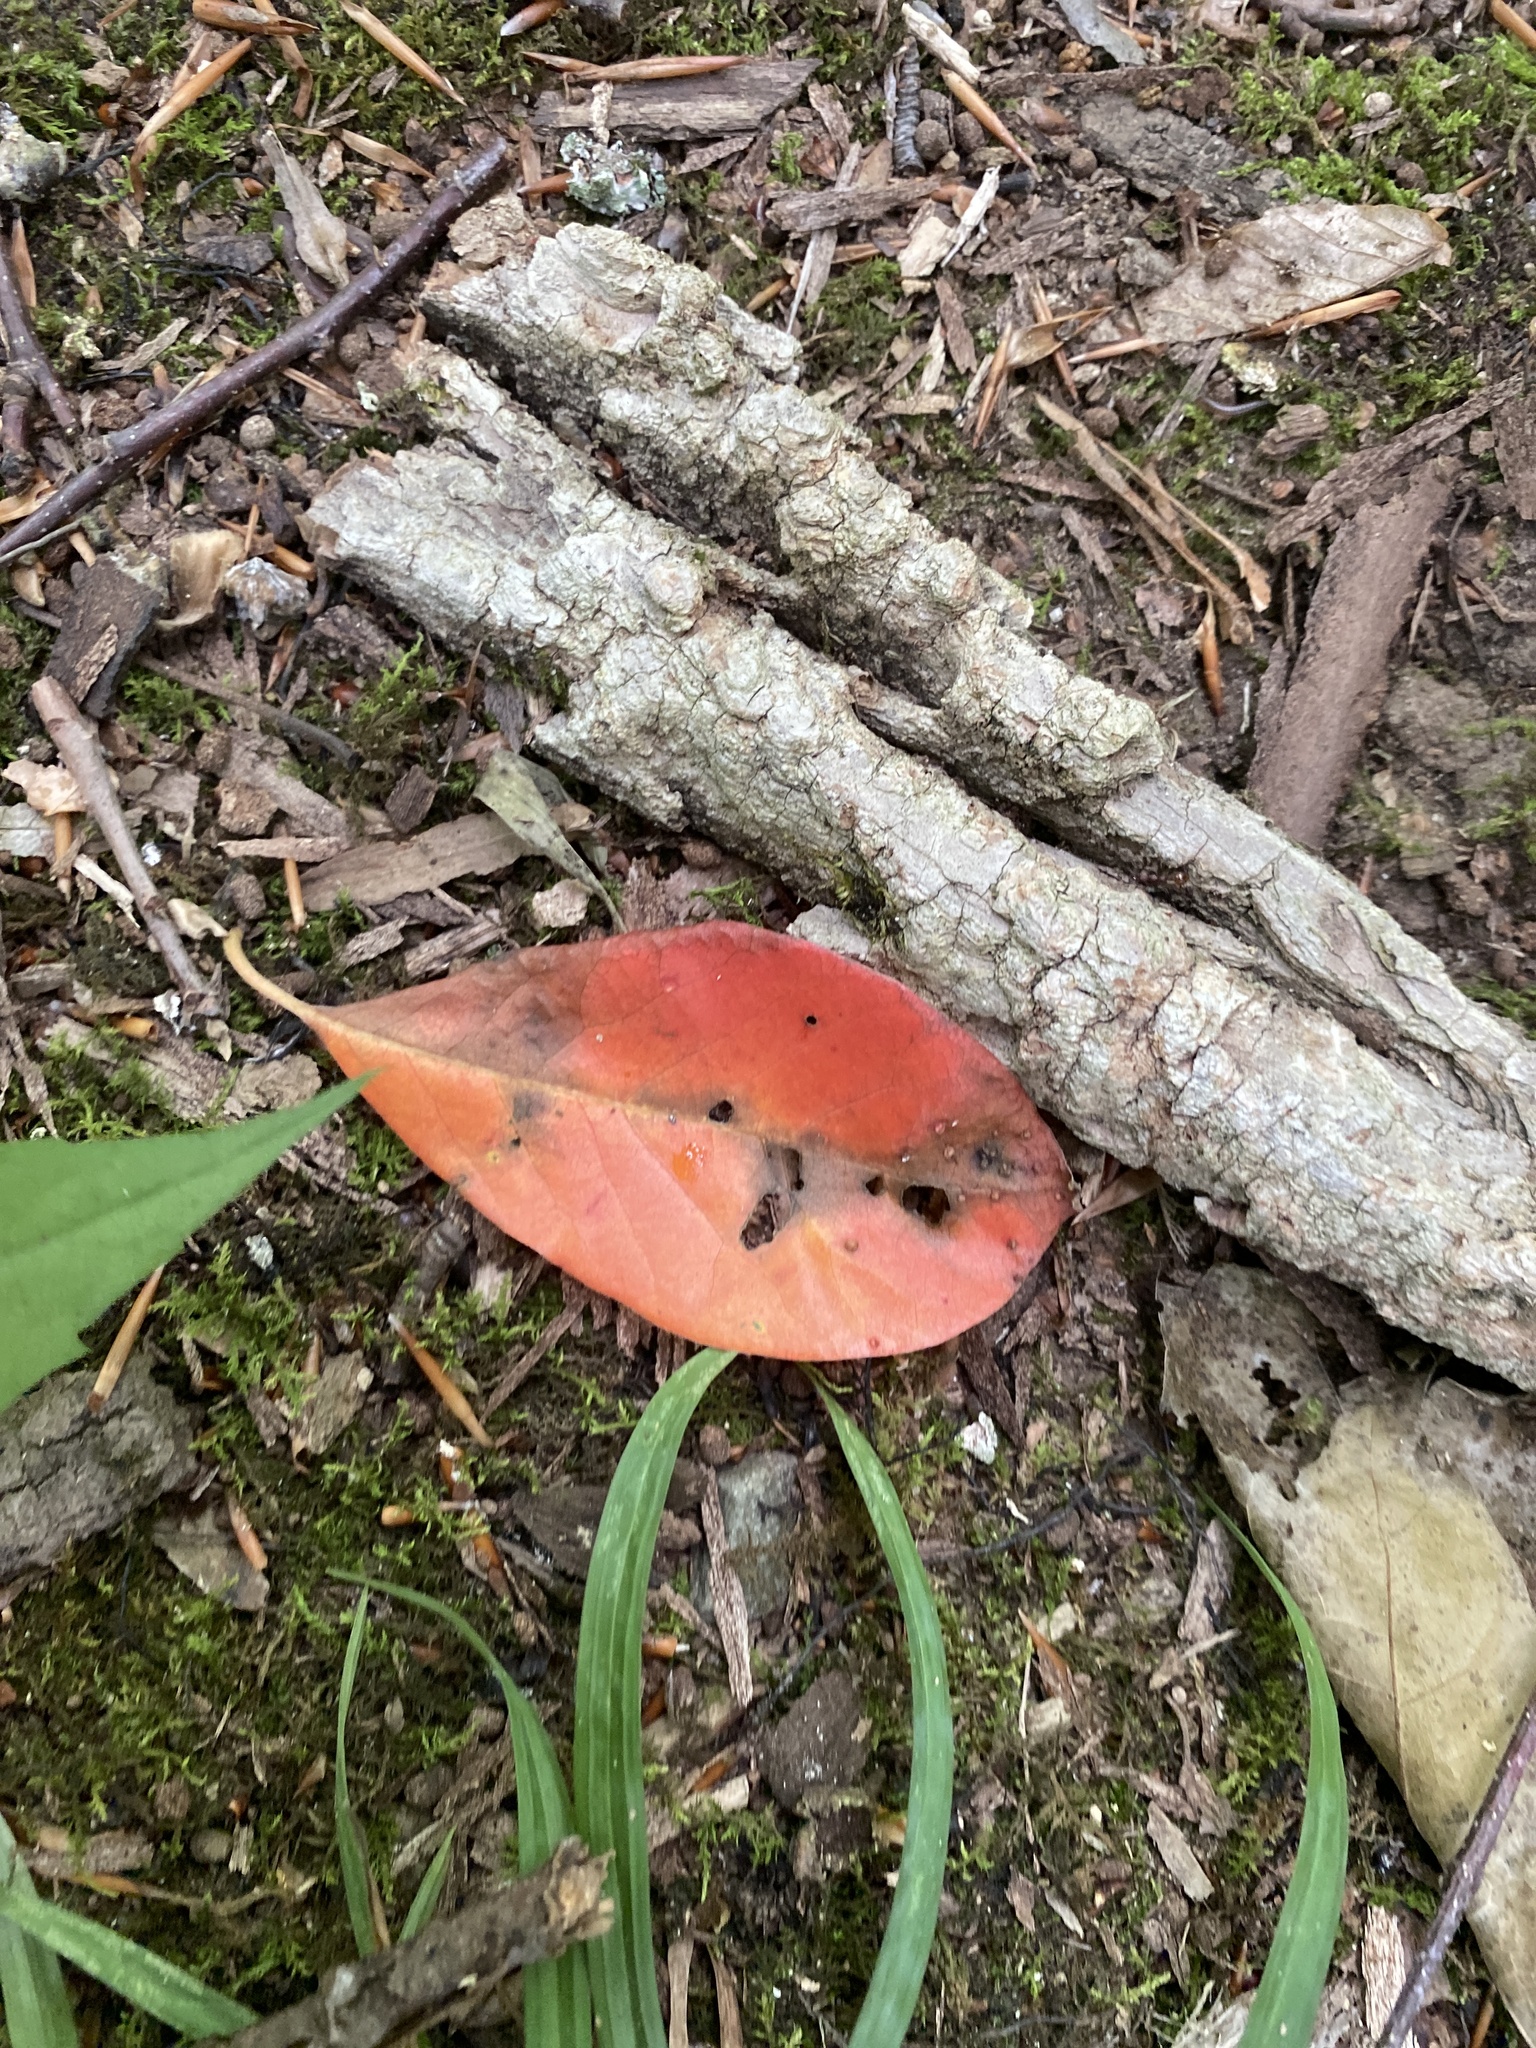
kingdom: Plantae
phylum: Tracheophyta
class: Magnoliopsida
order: Cornales
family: Nyssaceae
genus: Nyssa
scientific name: Nyssa sylvatica
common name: Black tupelo
